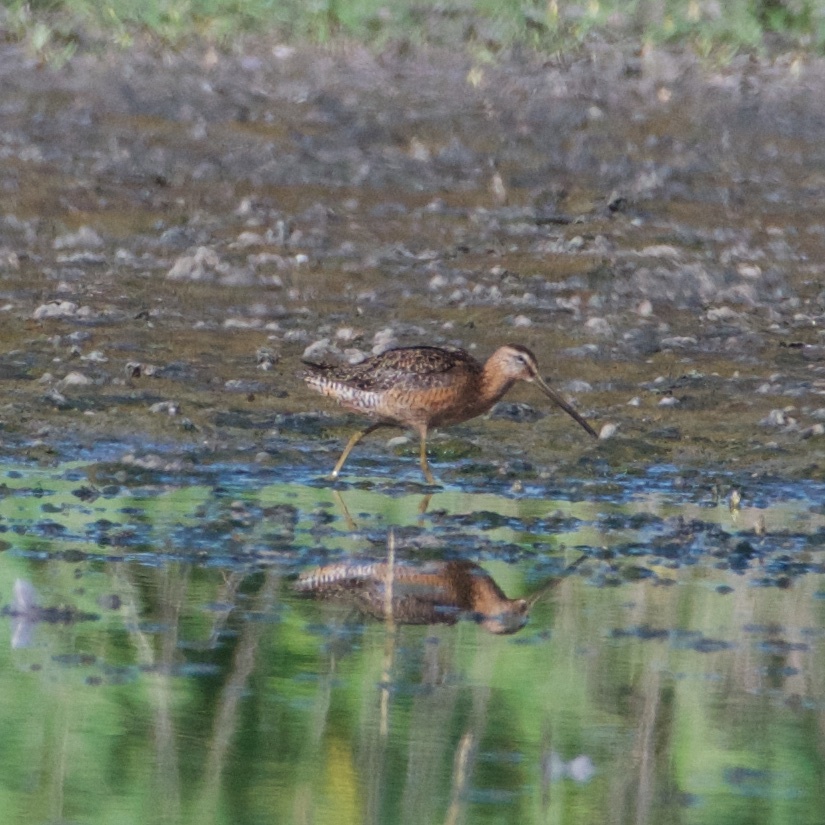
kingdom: Animalia
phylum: Chordata
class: Aves
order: Charadriiformes
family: Scolopacidae
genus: Limnodromus
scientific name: Limnodromus scolopaceus
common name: Long-billed dowitcher
